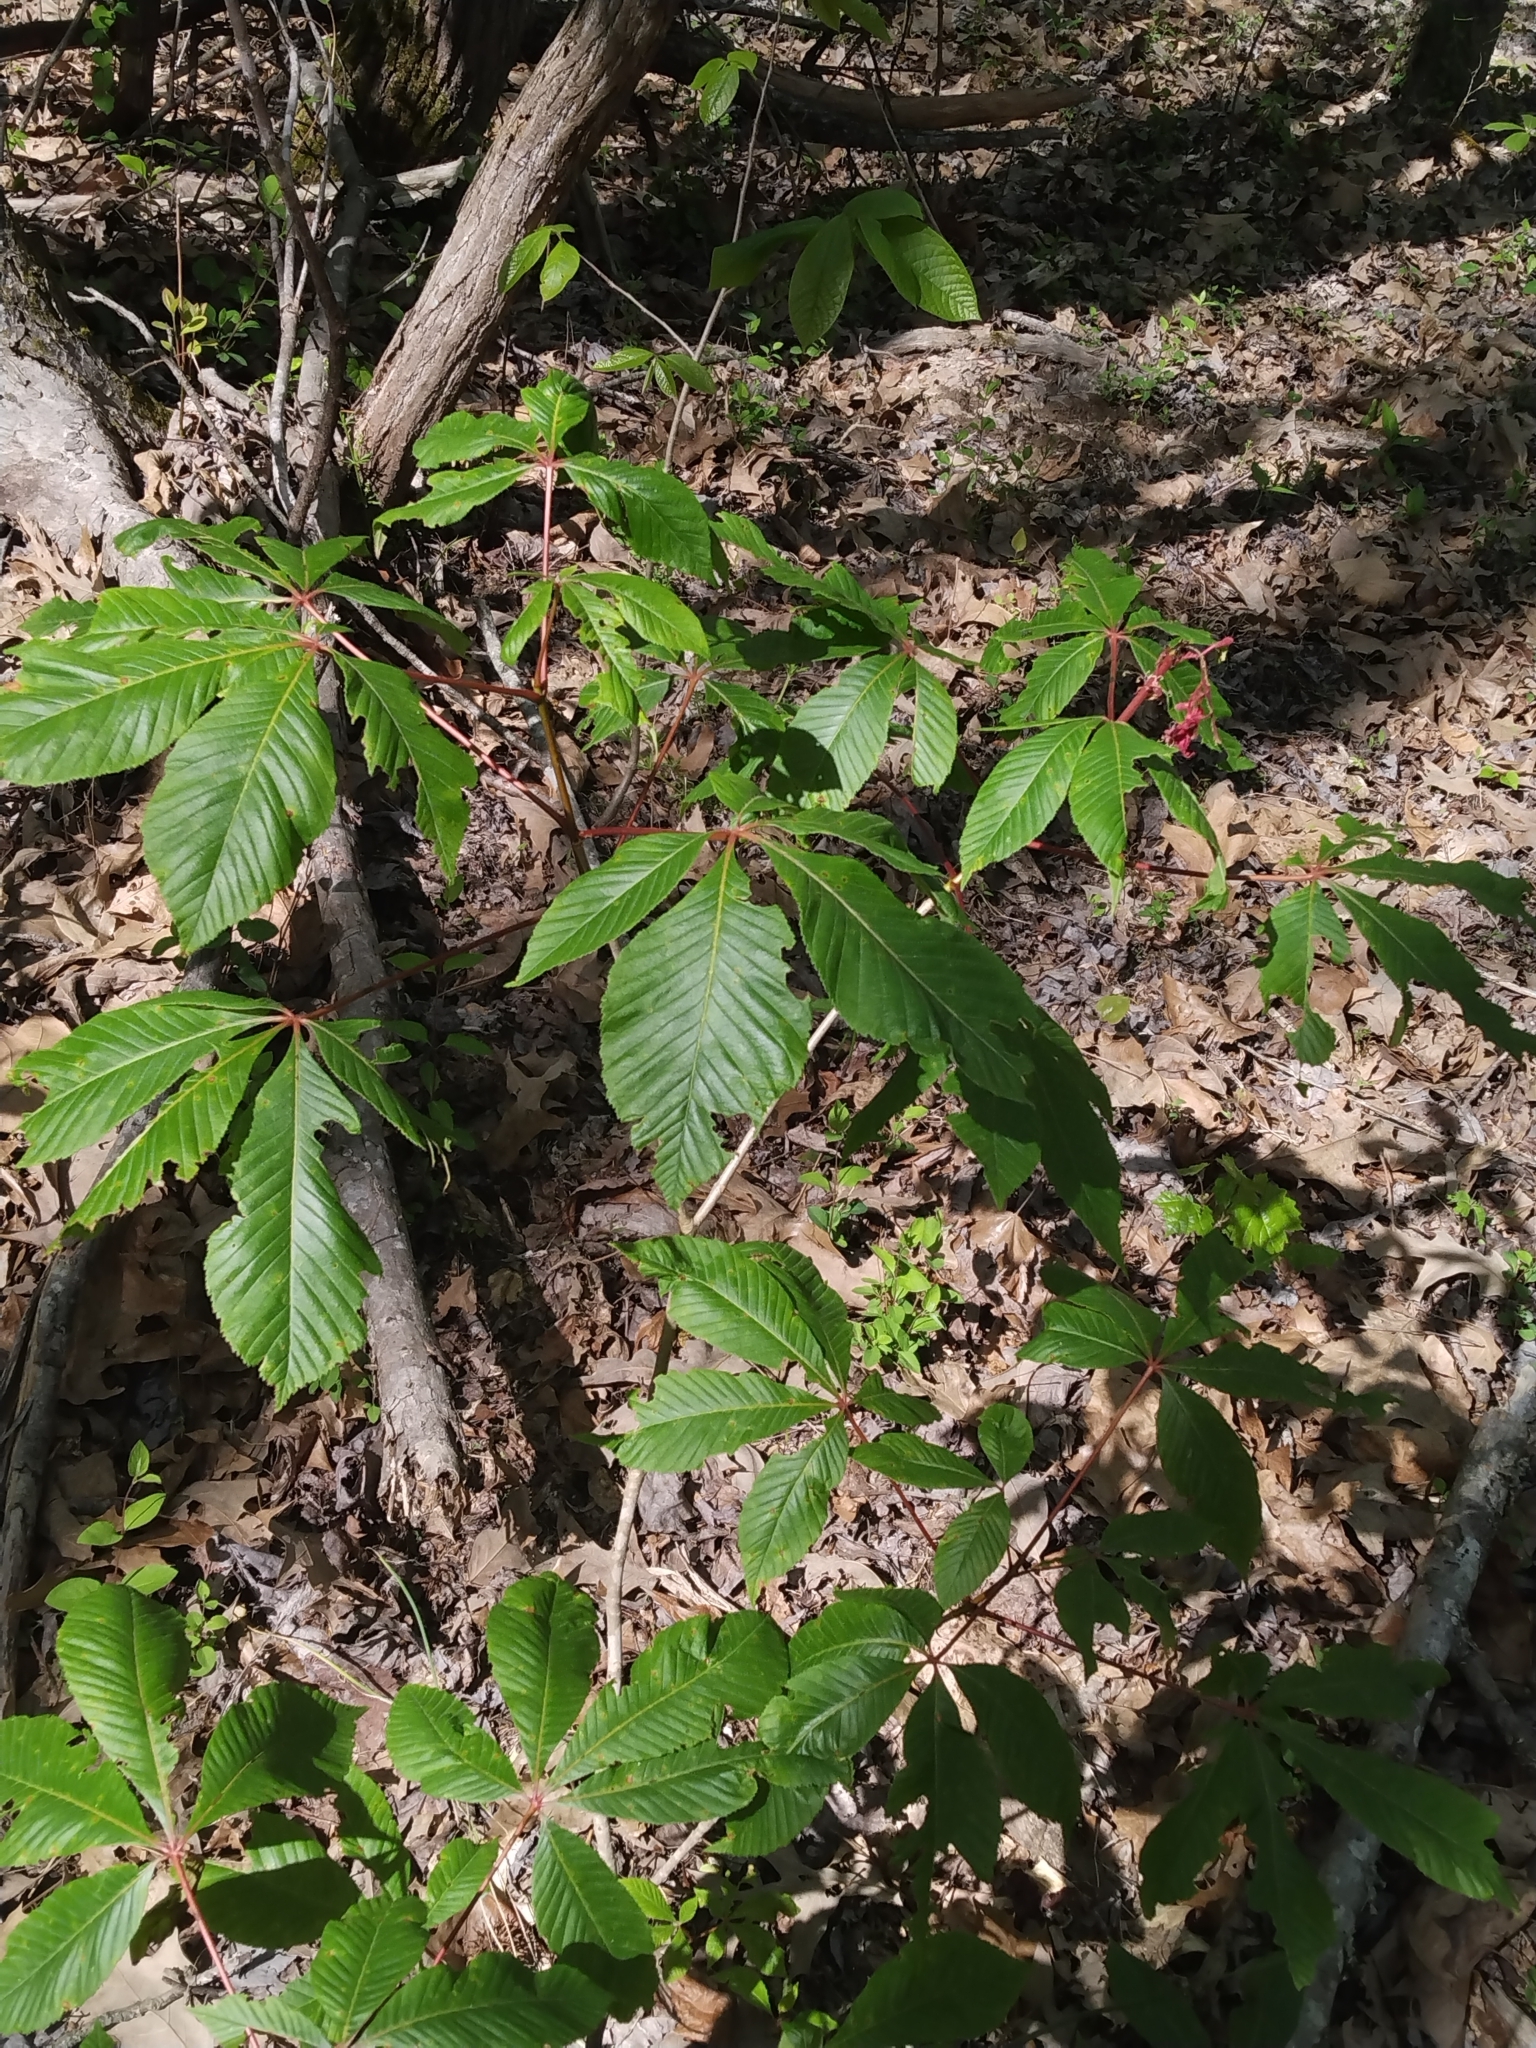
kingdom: Plantae
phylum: Tracheophyta
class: Magnoliopsida
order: Sapindales
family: Sapindaceae
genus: Aesculus
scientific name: Aesculus pavia
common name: Red buckeye
